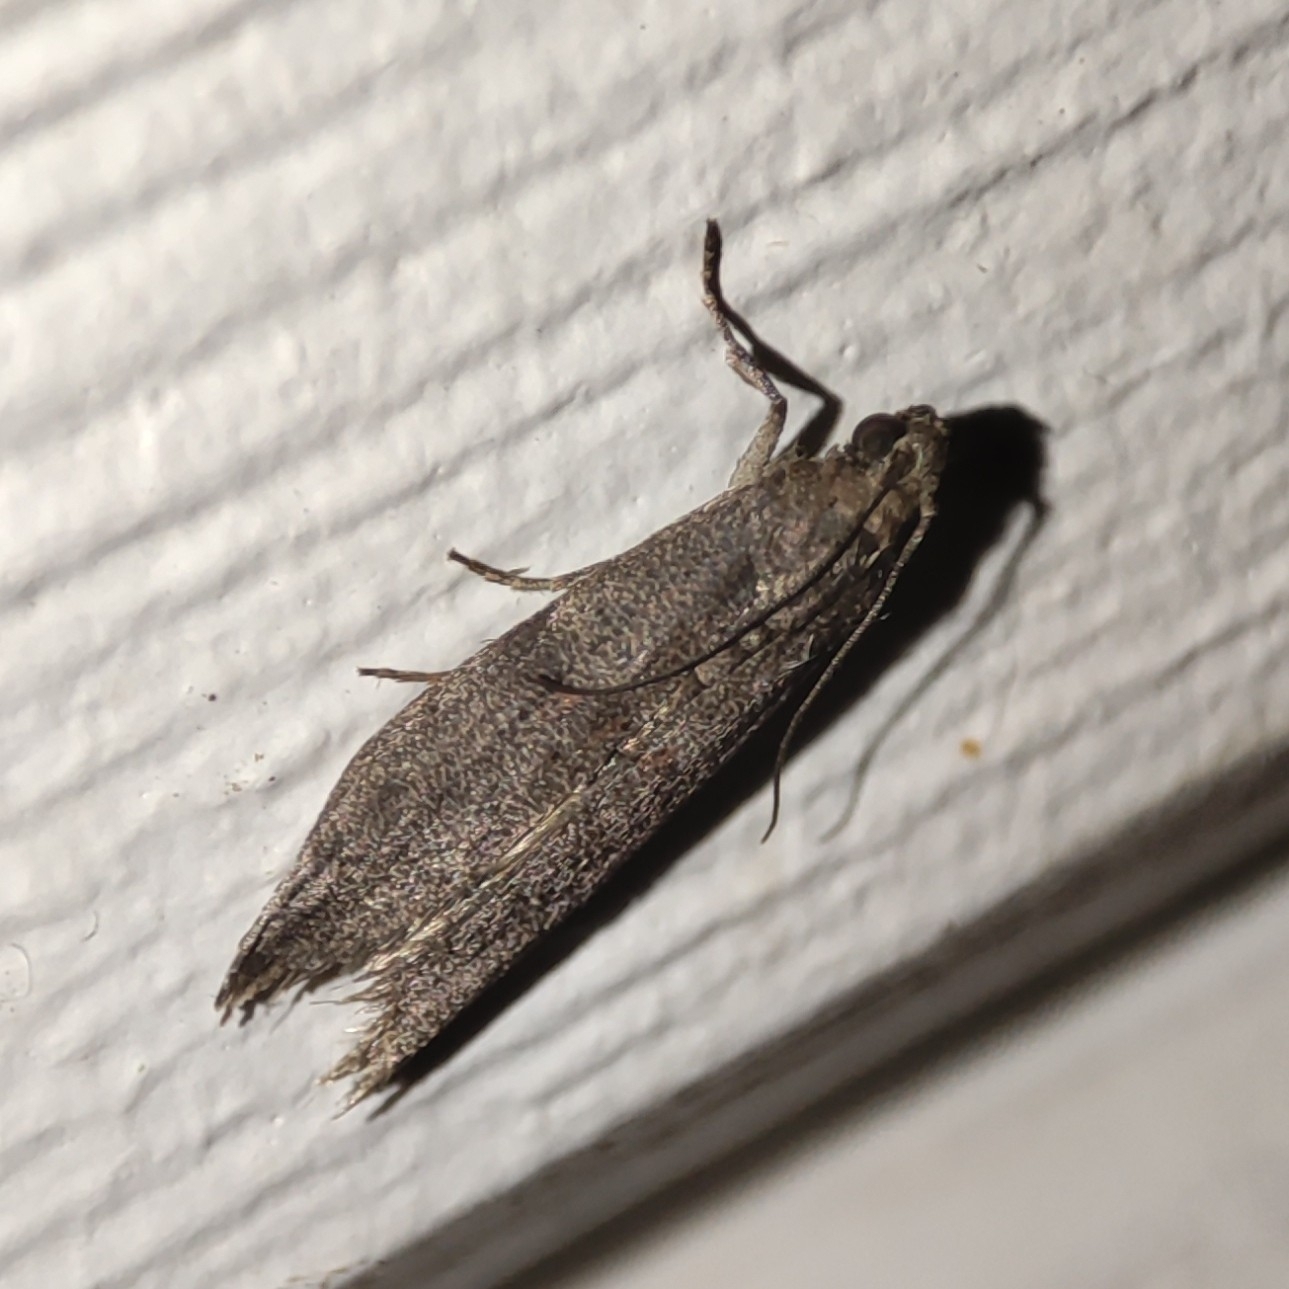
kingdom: Animalia
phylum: Arthropoda
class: Insecta
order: Lepidoptera
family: Pyralidae
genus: Cadra
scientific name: Cadra cautella
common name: Almond moth
